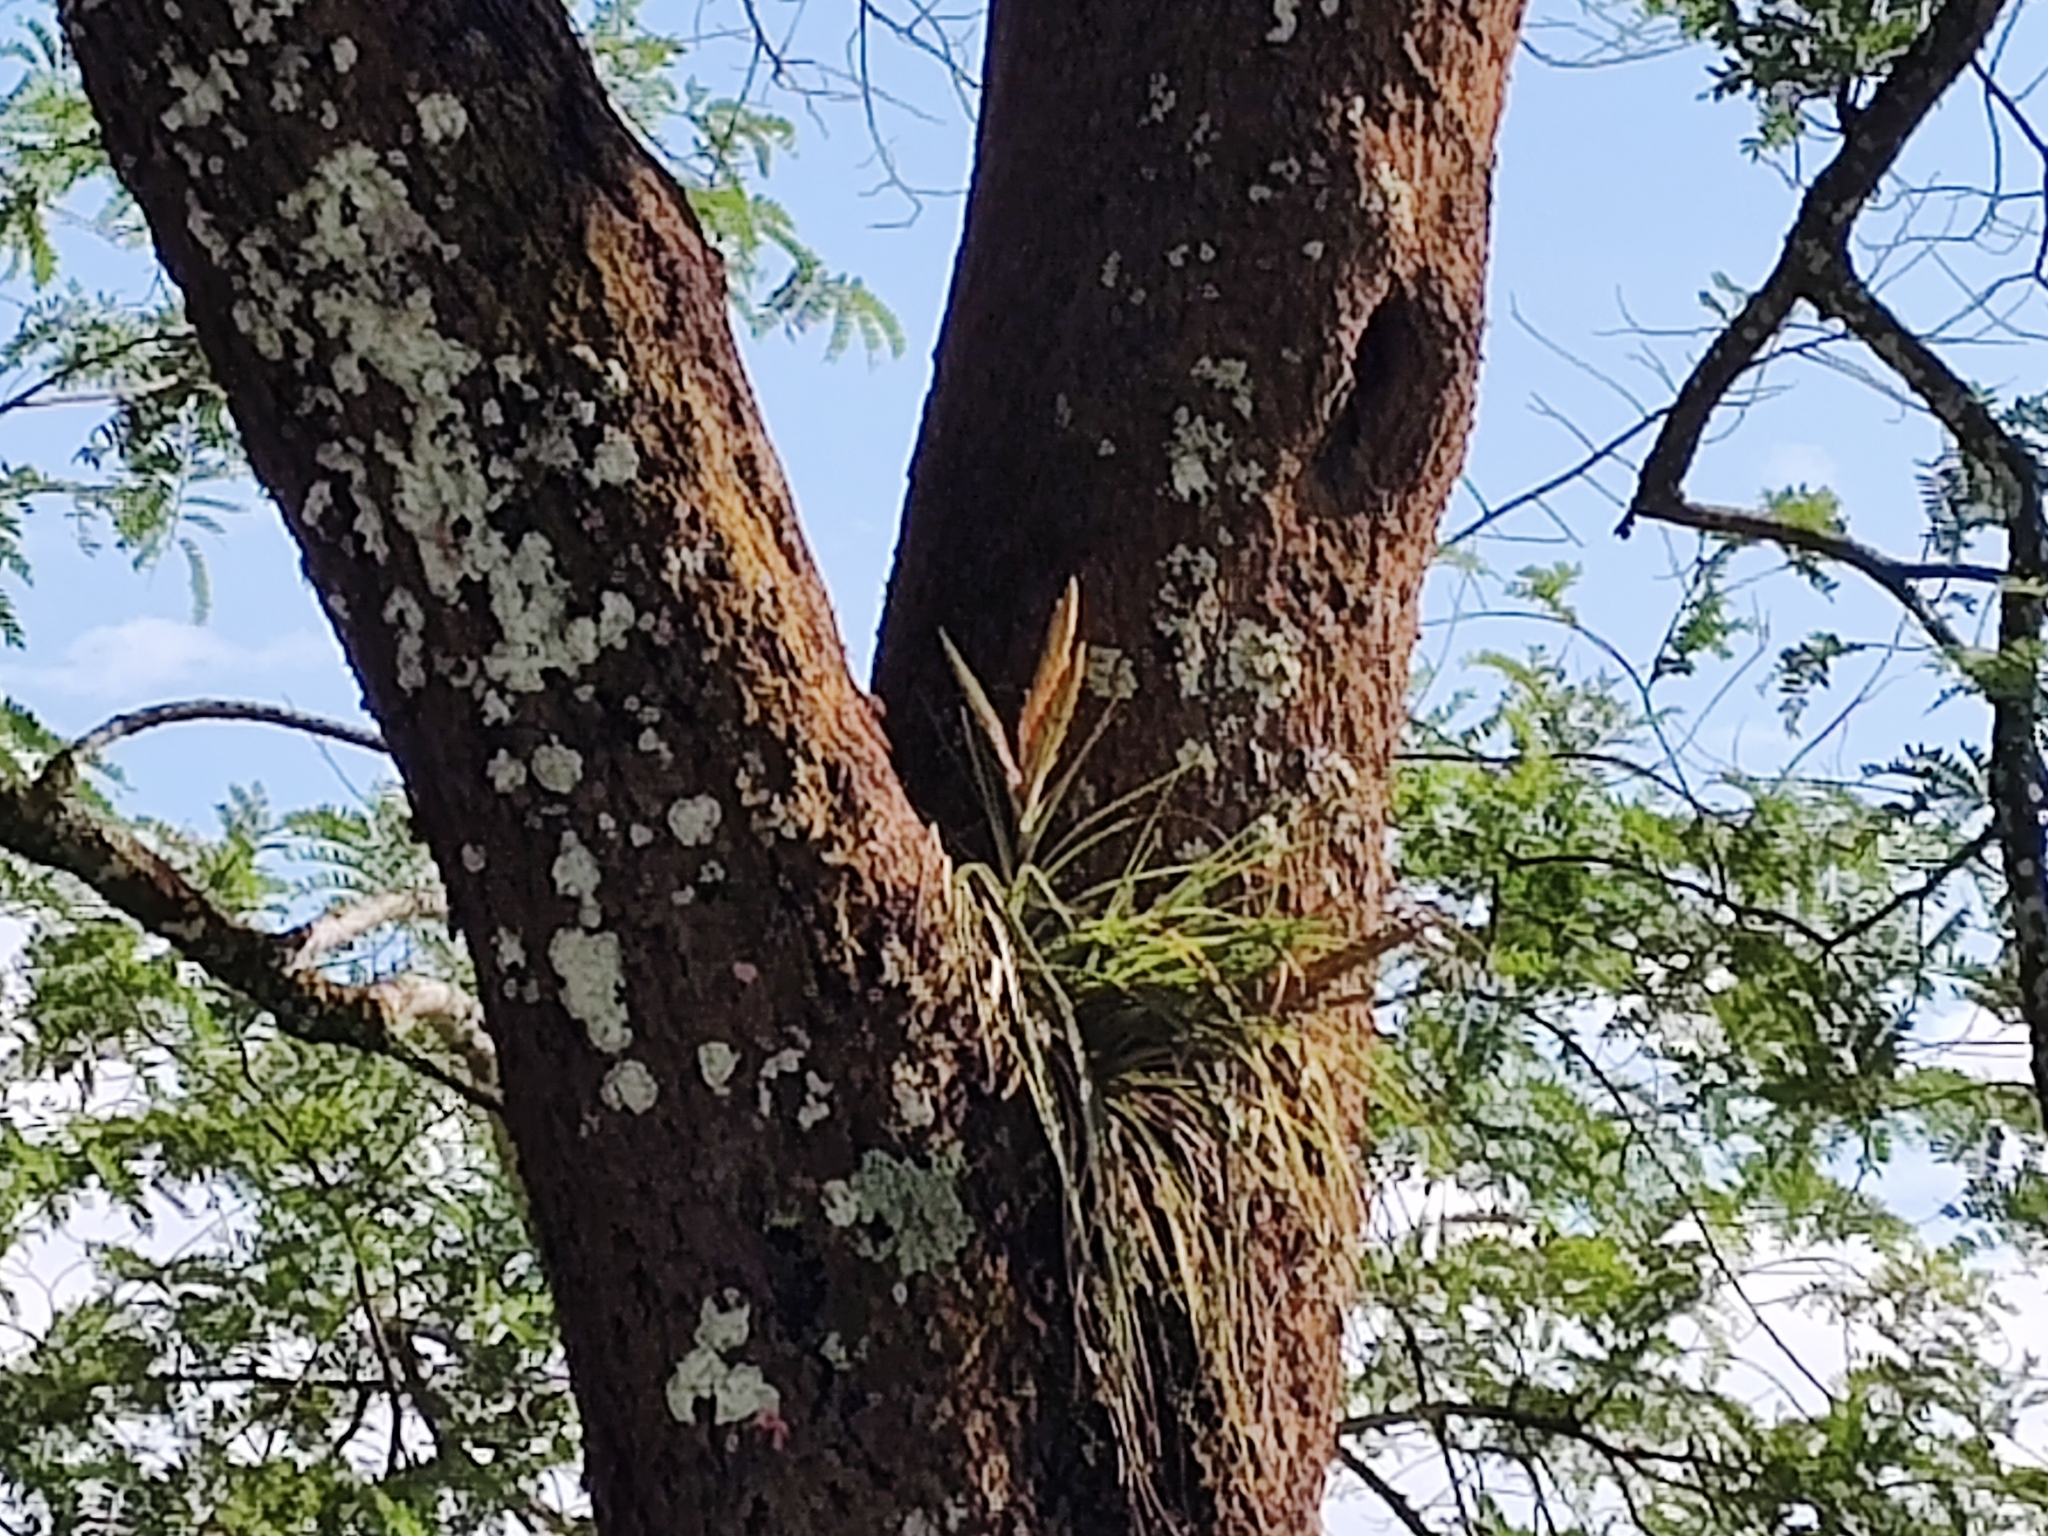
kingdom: Plantae
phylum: Tracheophyta
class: Liliopsida
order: Poales
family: Bromeliaceae
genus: Tillandsia
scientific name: Tillandsia fasciculata
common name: Giant airplant
